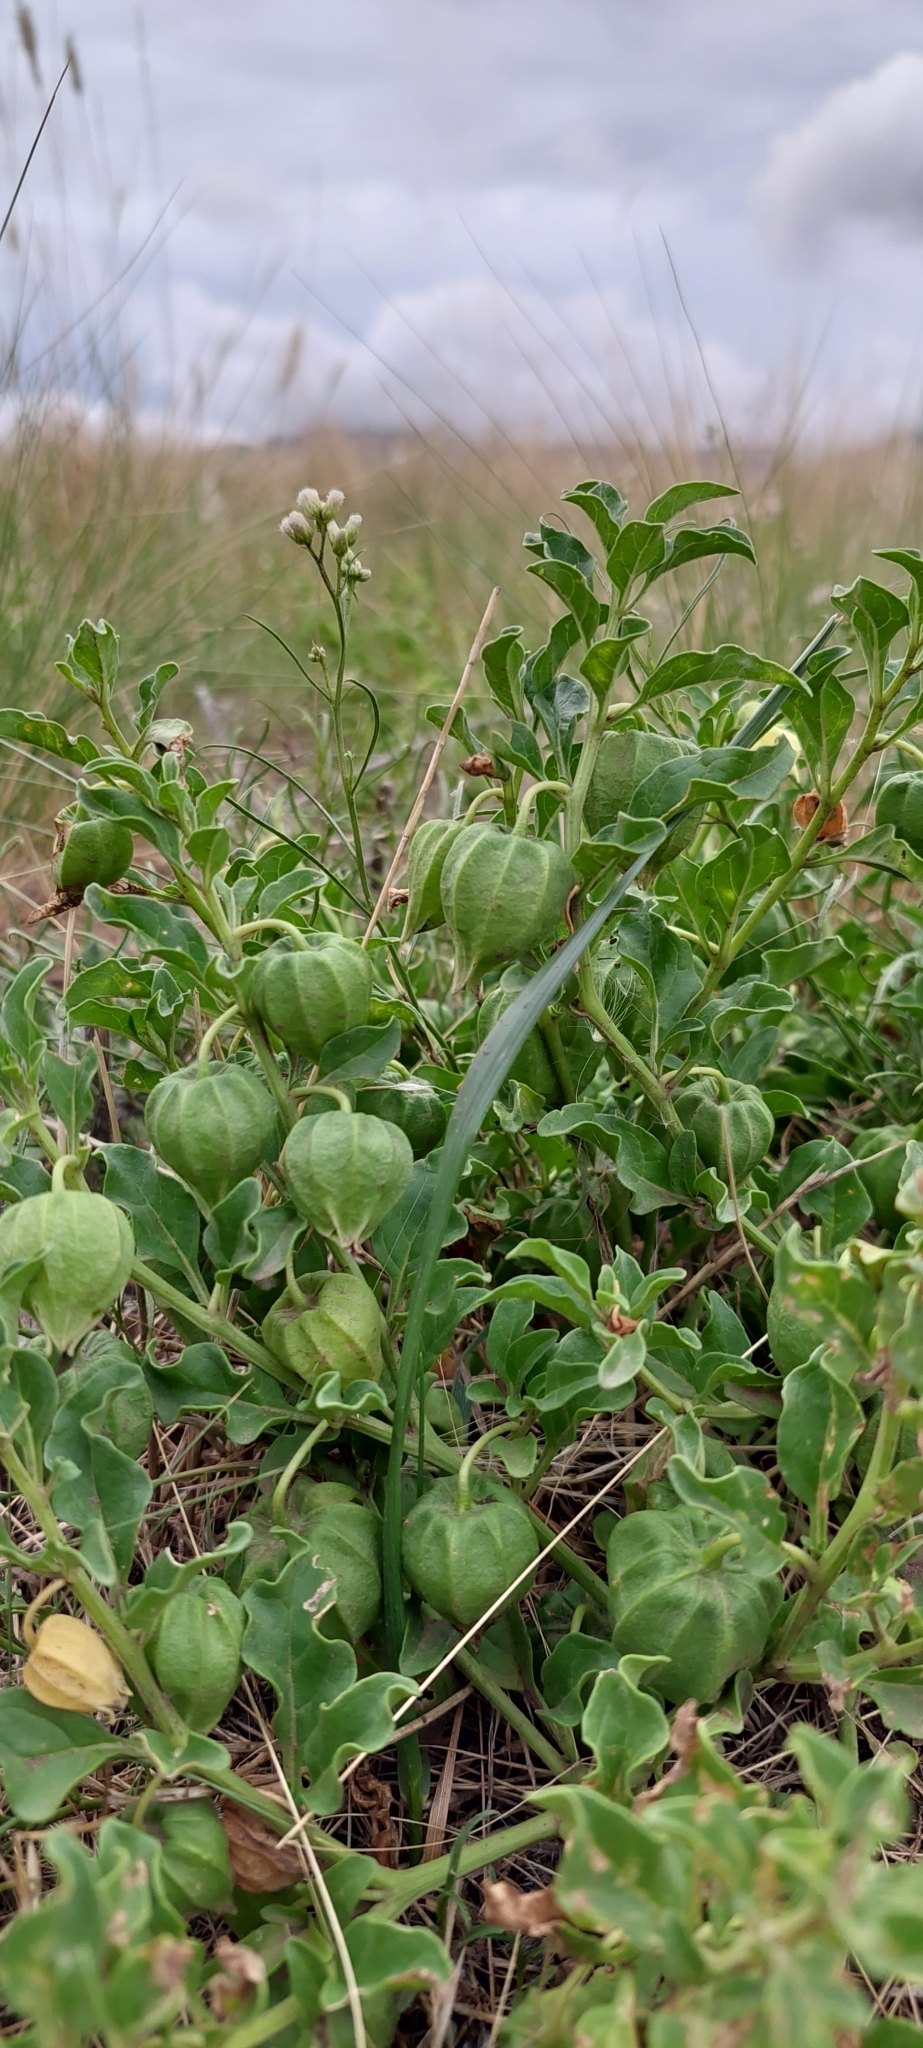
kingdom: Plantae
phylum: Tracheophyta
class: Magnoliopsida
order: Solanales
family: Solanaceae
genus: Physalis
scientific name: Physalis viscosa
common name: Stellate ground-cherry
